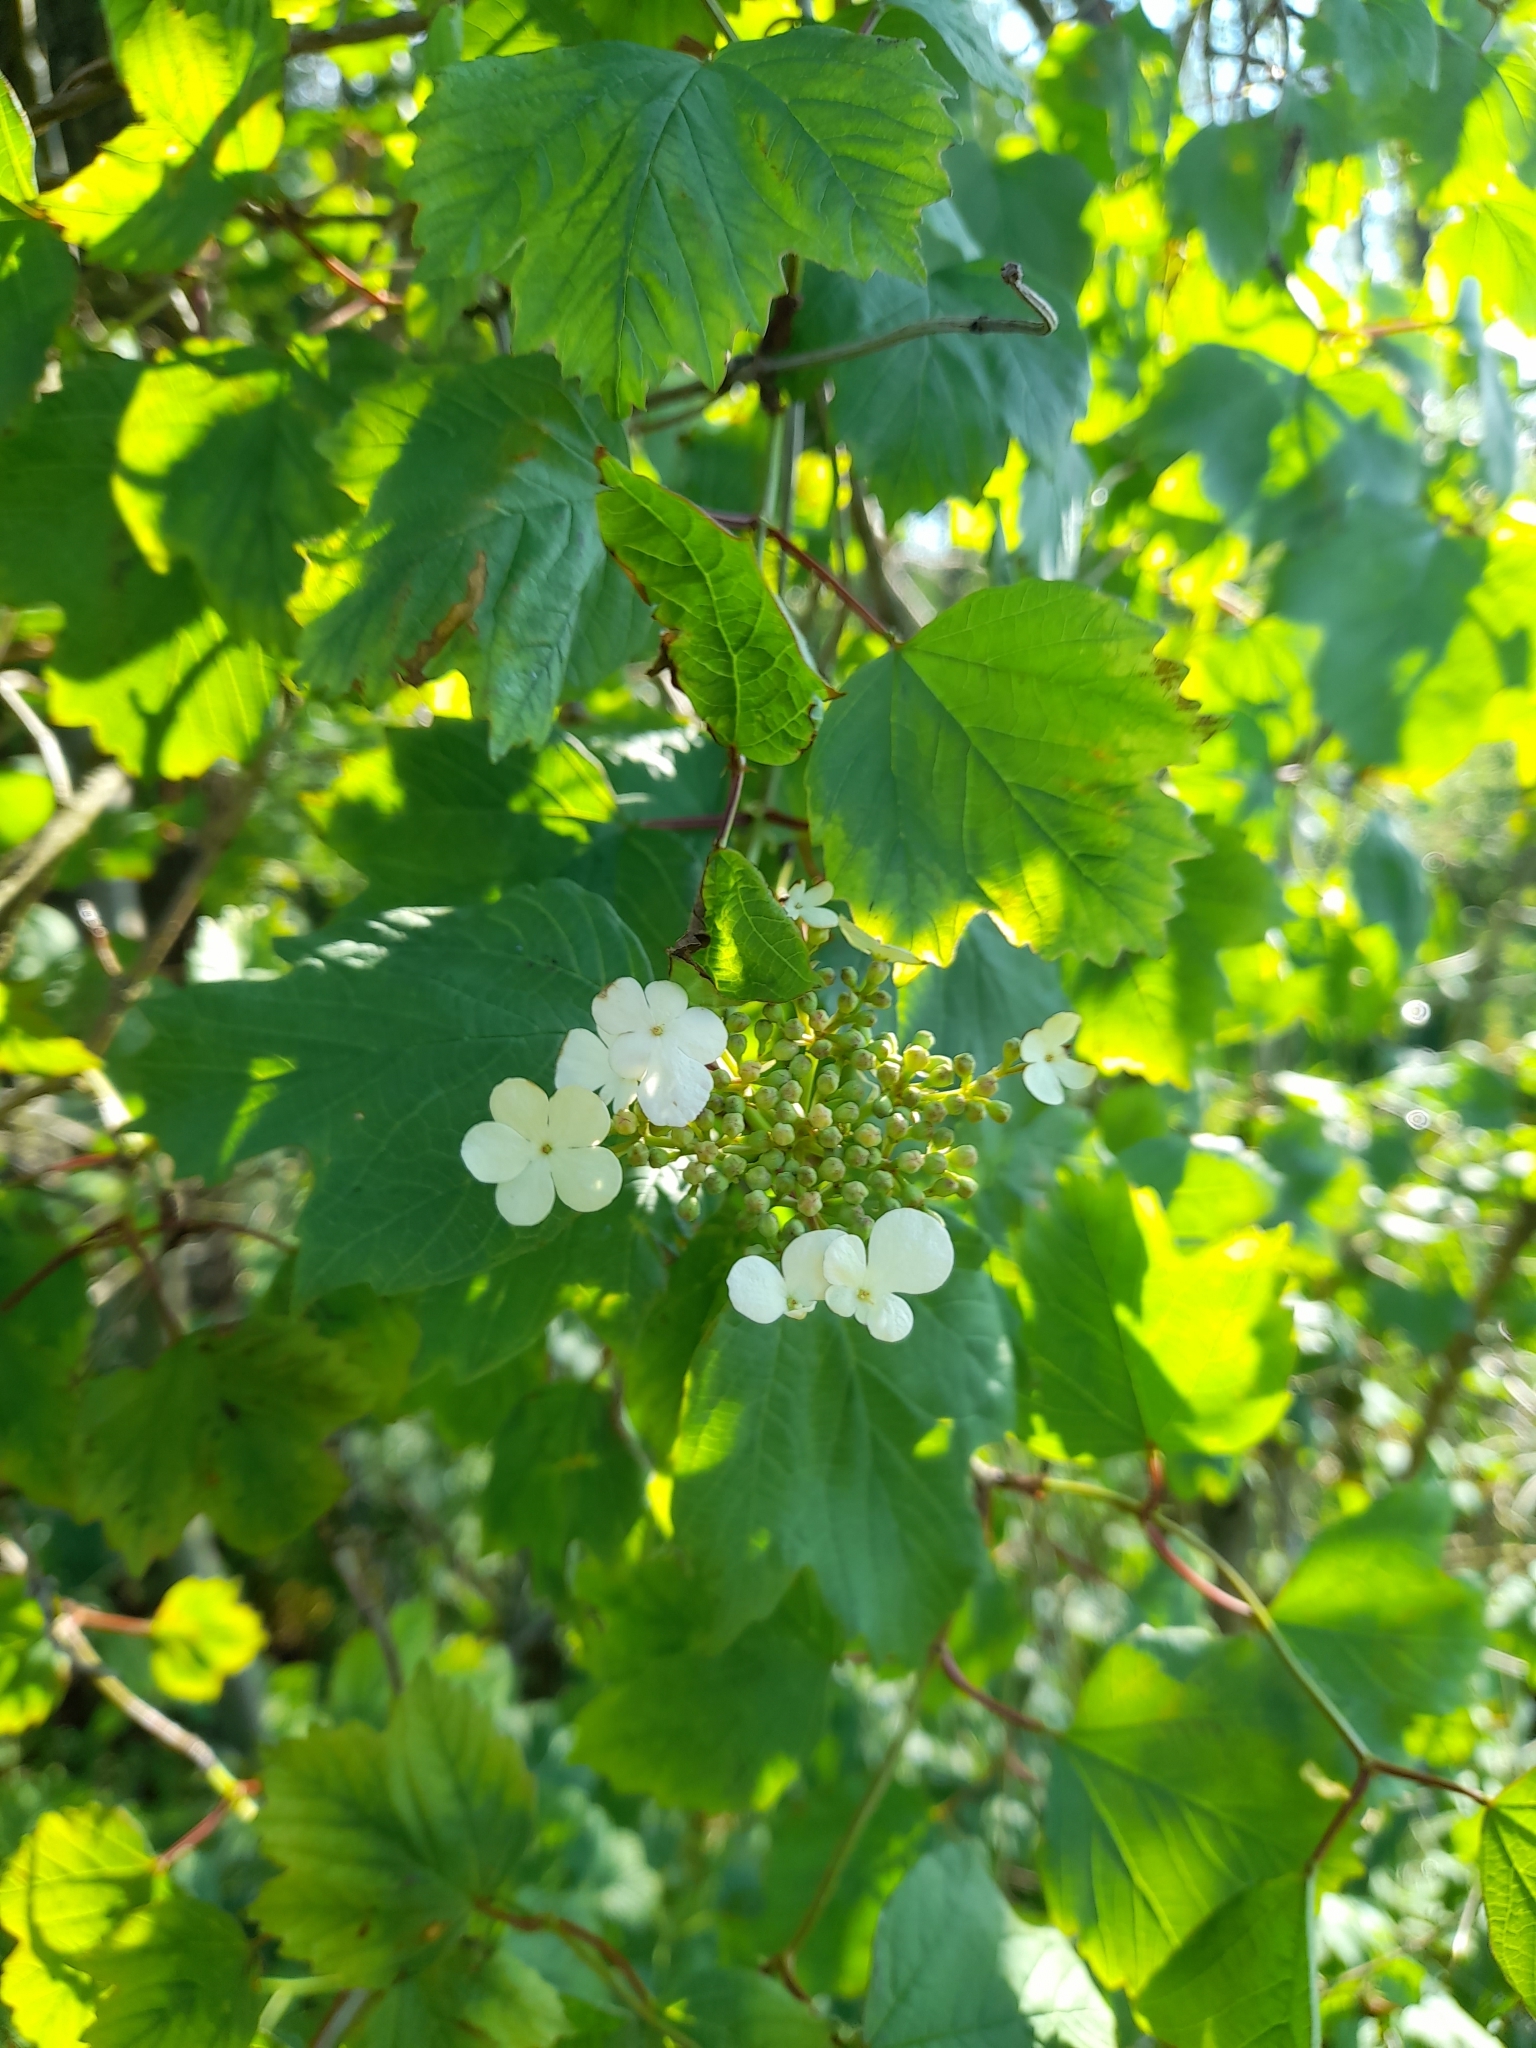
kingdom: Plantae
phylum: Tracheophyta
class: Magnoliopsida
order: Dipsacales
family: Viburnaceae
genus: Viburnum
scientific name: Viburnum opulus
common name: Guelder-rose
